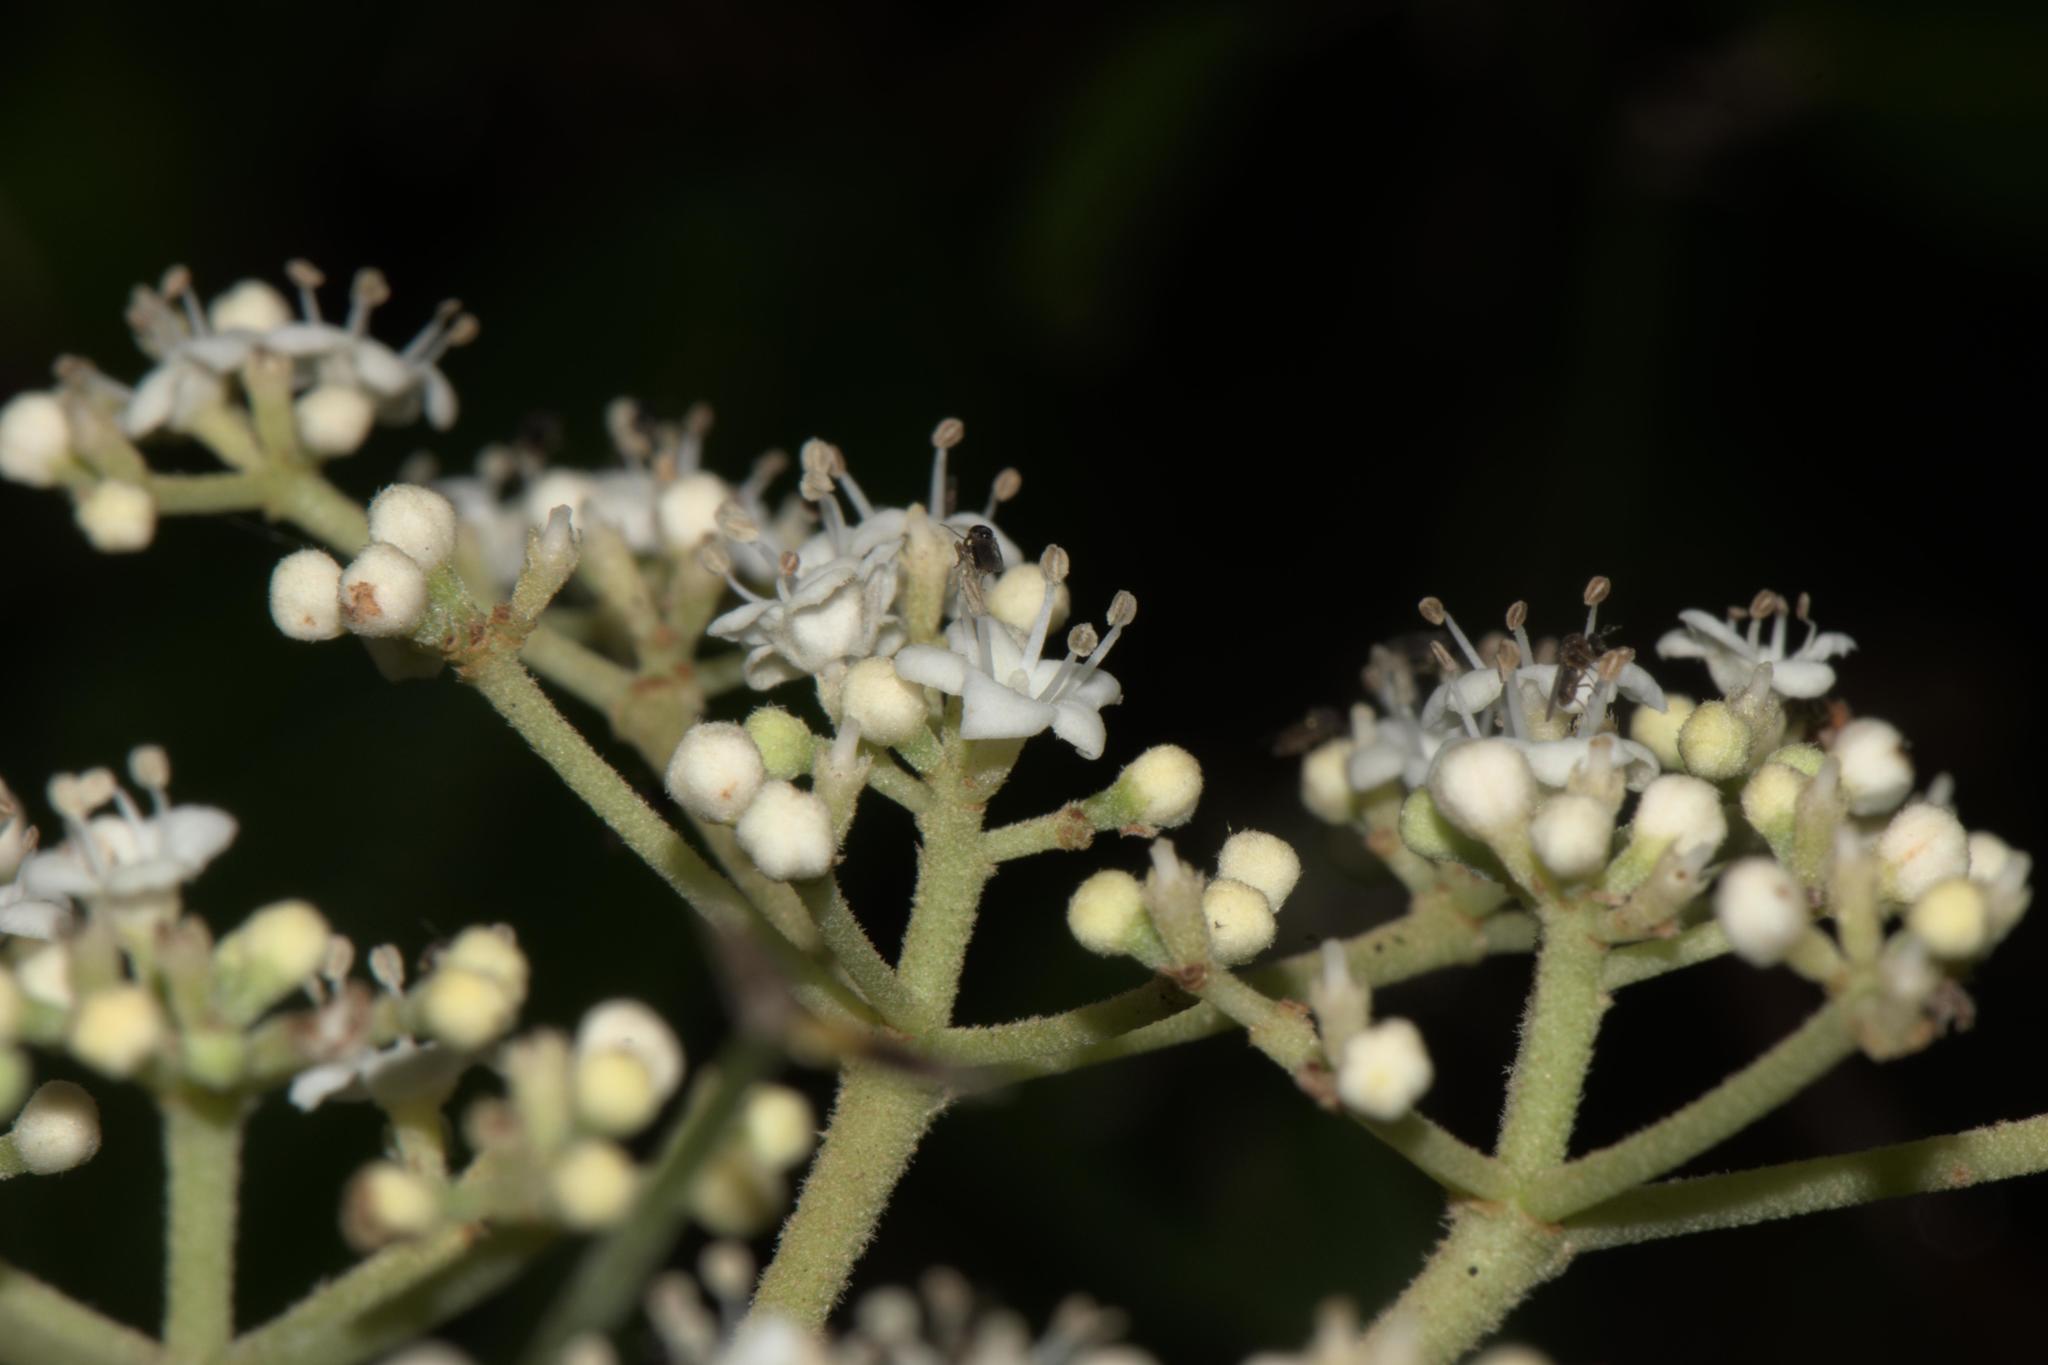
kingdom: Plantae
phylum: Tracheophyta
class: Magnoliopsida
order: Dipsacales
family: Viburnaceae
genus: Viburnum
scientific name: Viburnum mullaha
